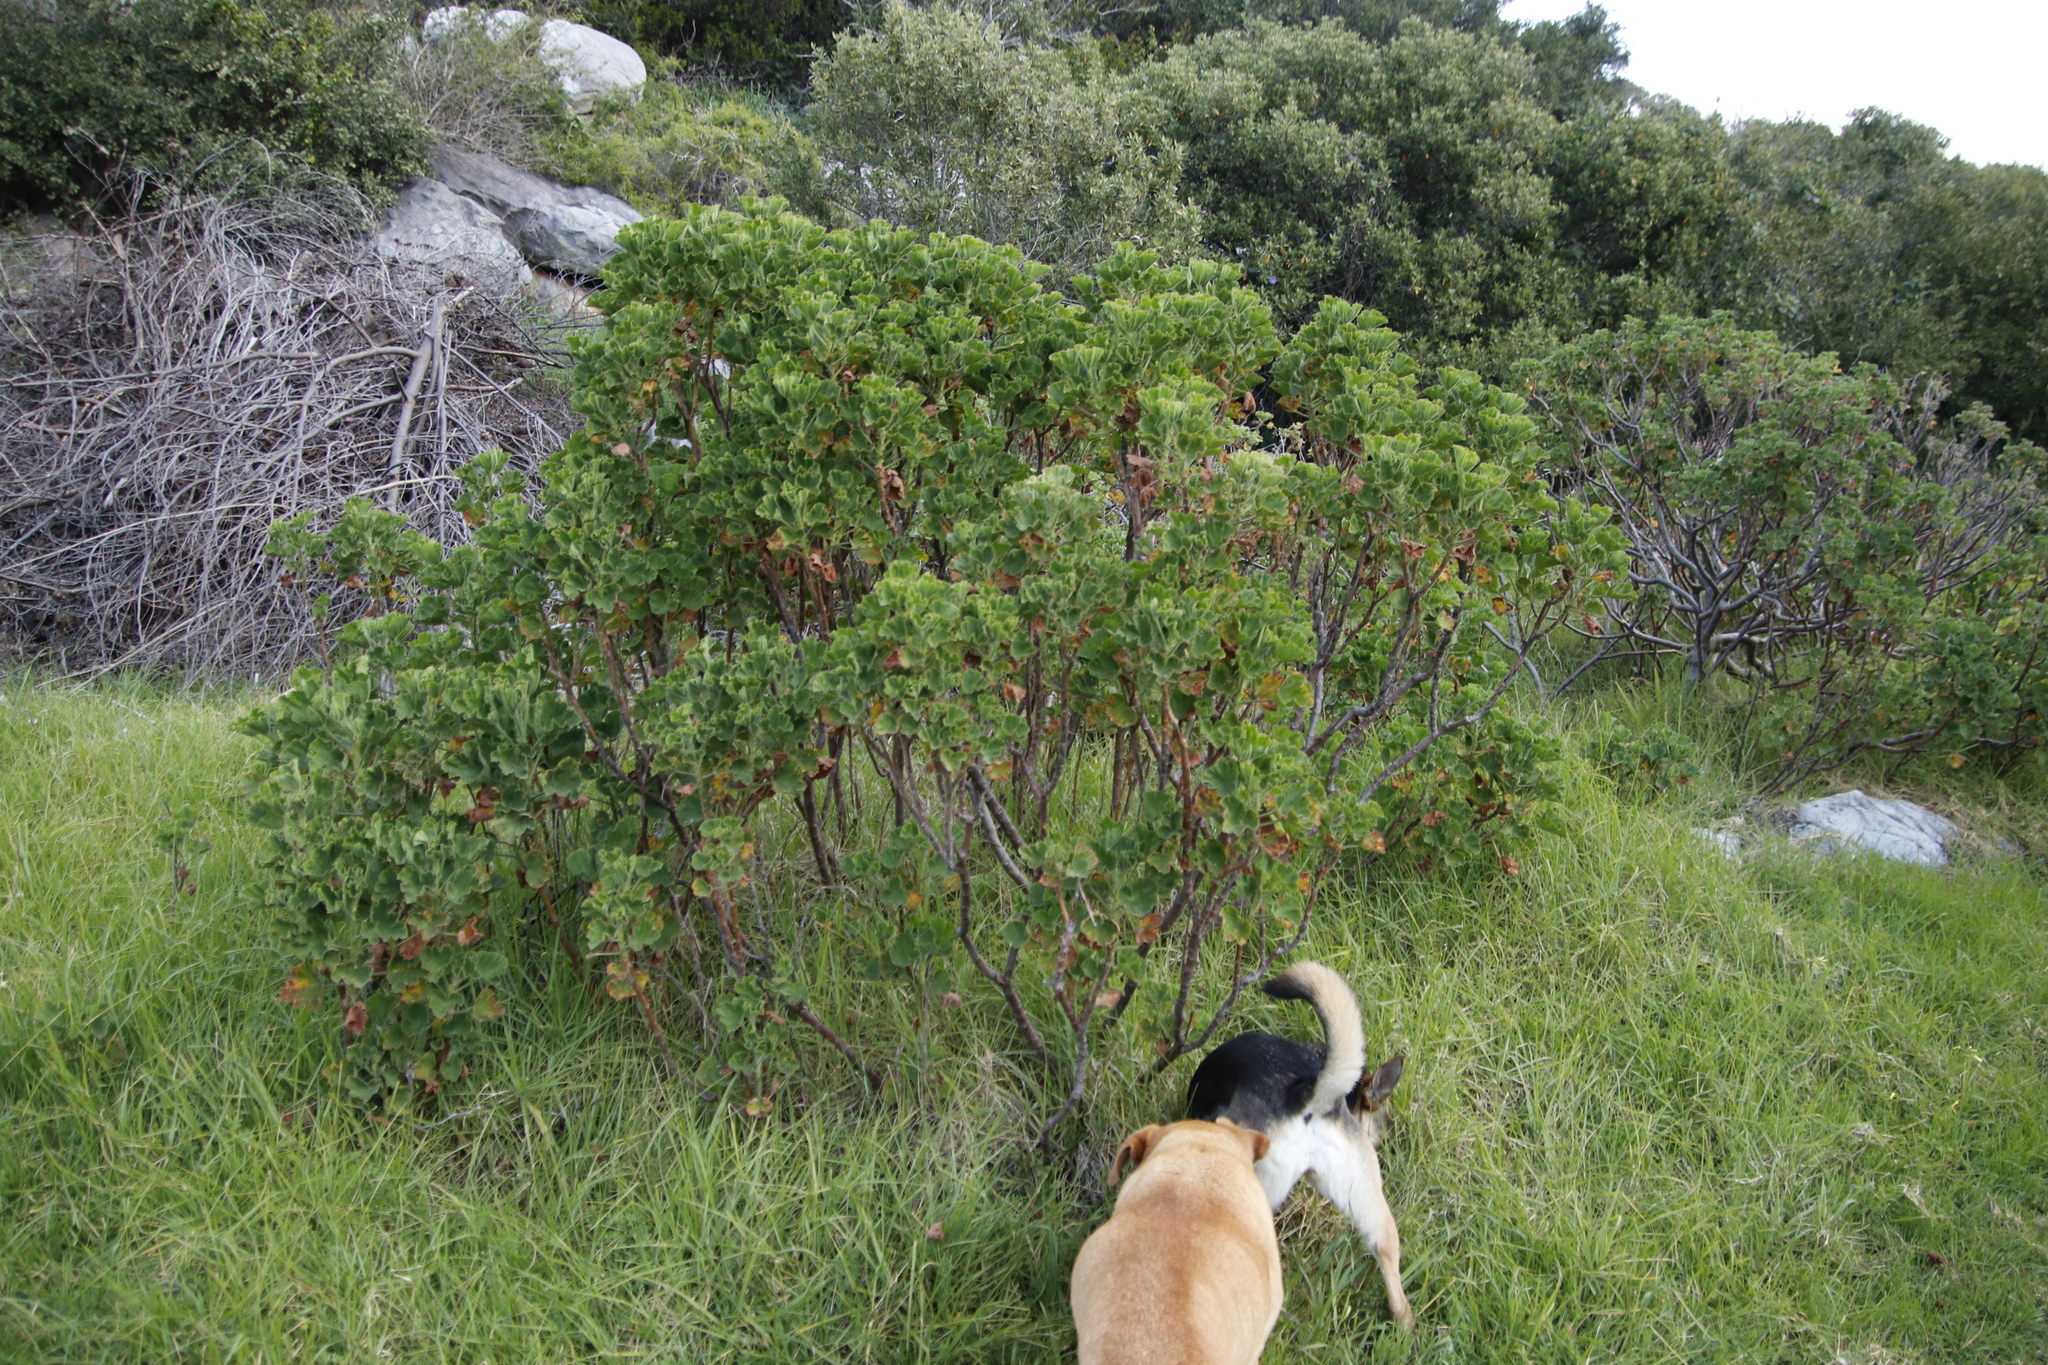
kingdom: Plantae
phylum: Tracheophyta
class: Magnoliopsida
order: Geraniales
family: Geraniaceae
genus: Pelargonium
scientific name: Pelargonium cucullatum
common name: Tree pelargonium
